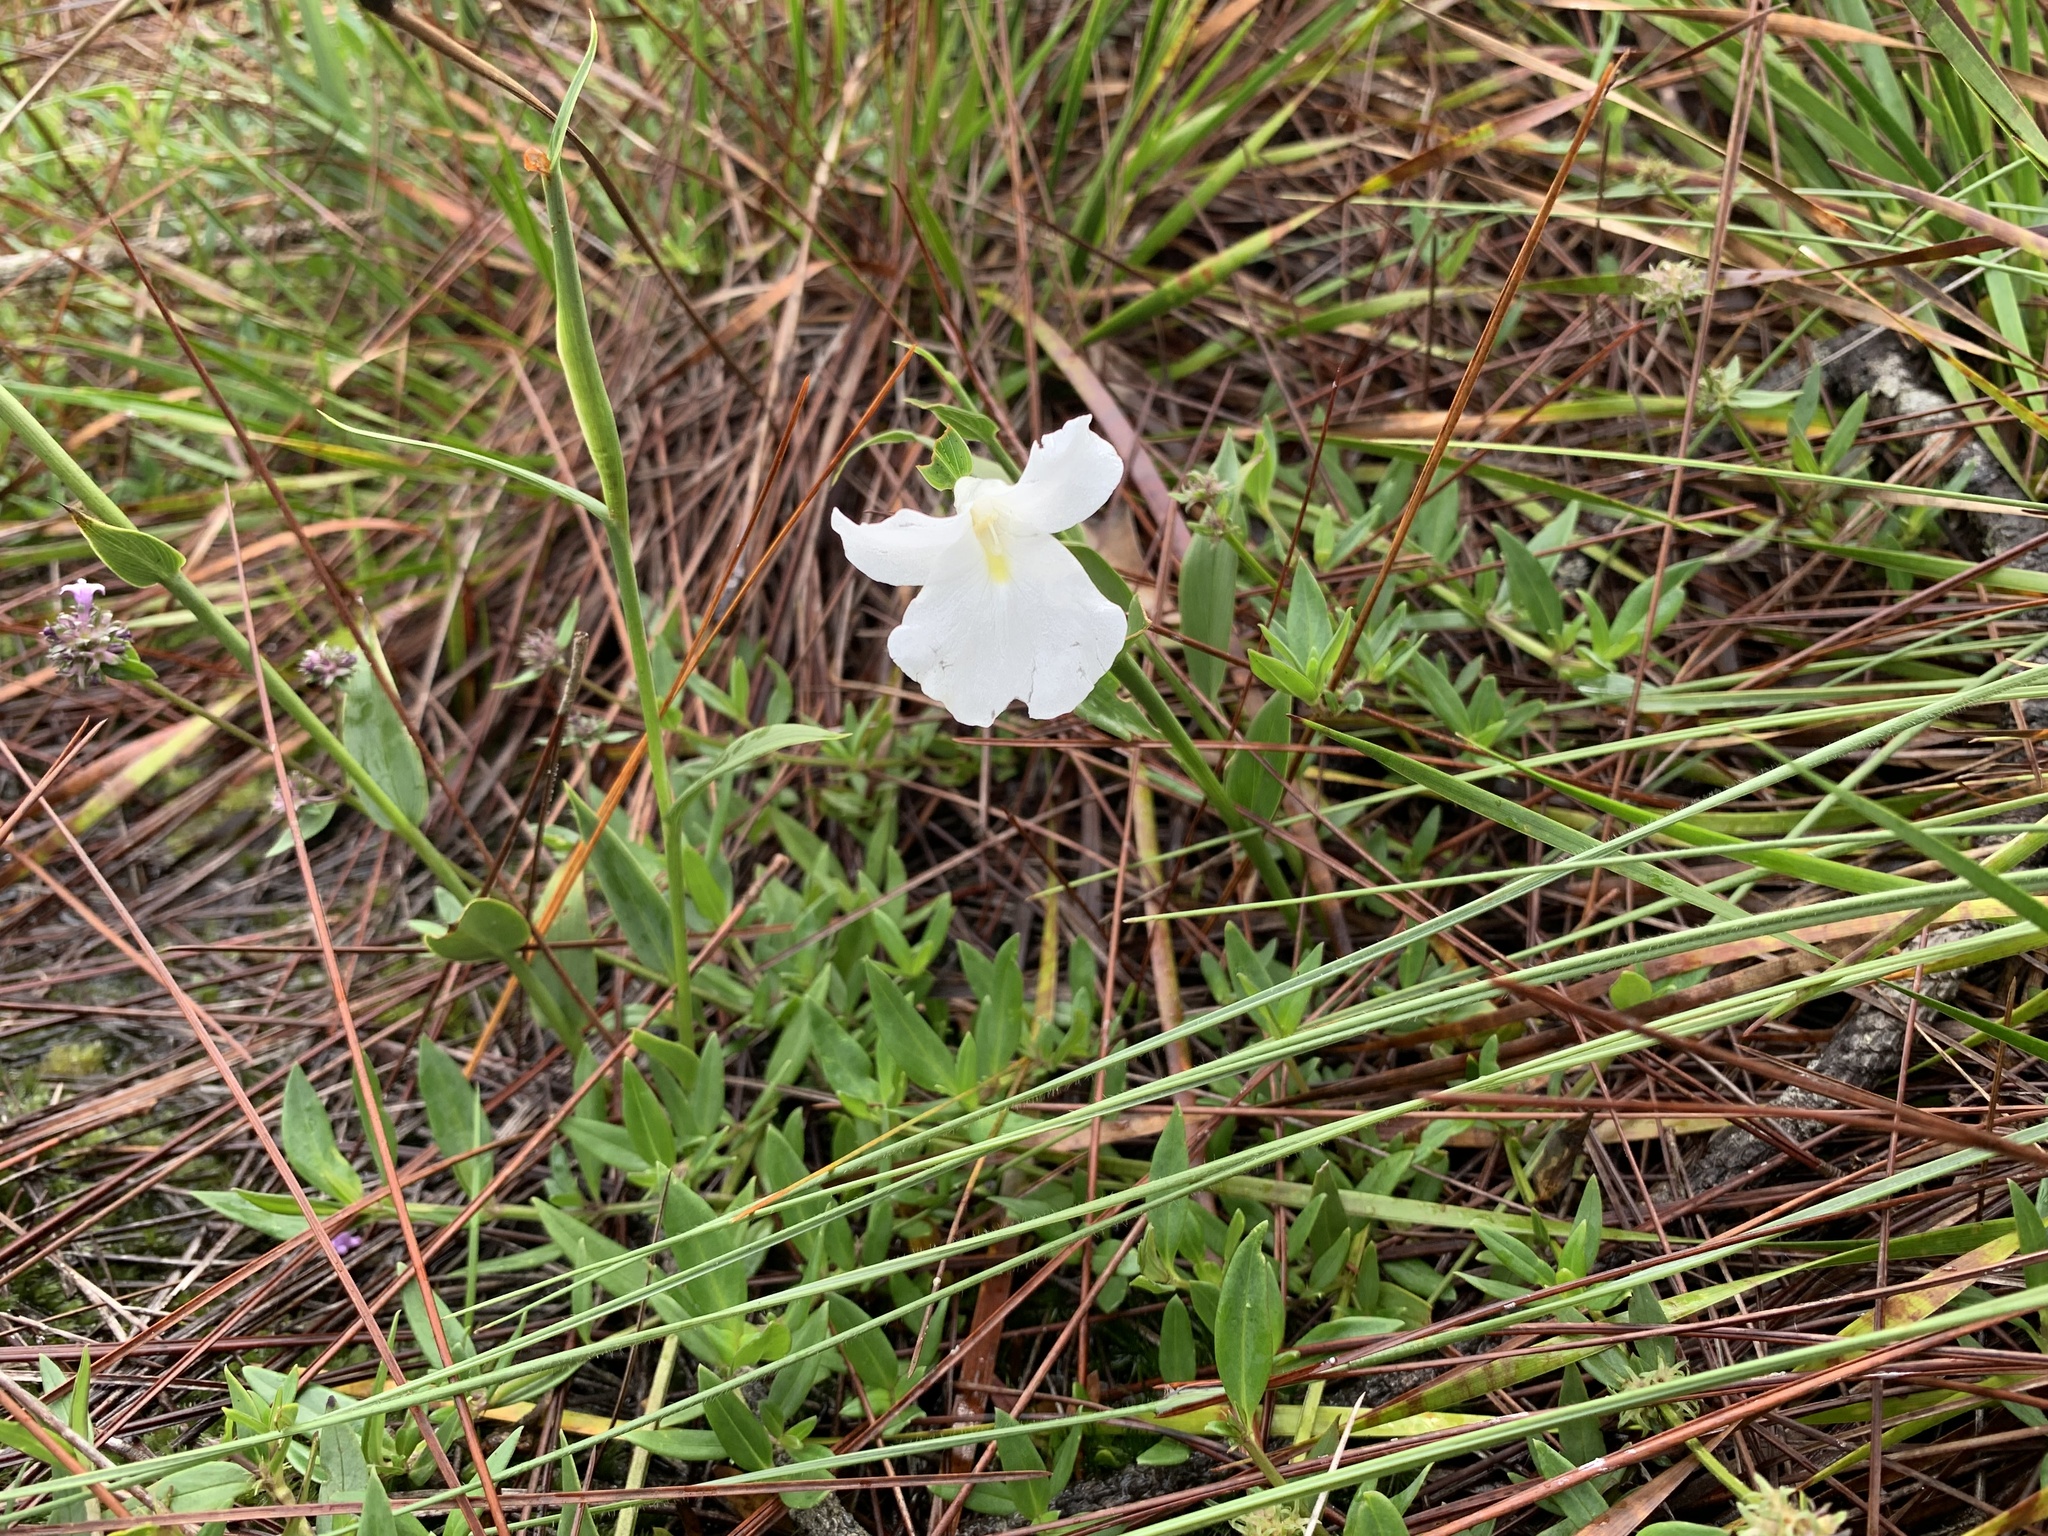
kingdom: Plantae
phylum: Tracheophyta
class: Liliopsida
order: Zingiberales
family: Zingiberaceae
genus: Boesenbergia
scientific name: Boesenbergia alba
